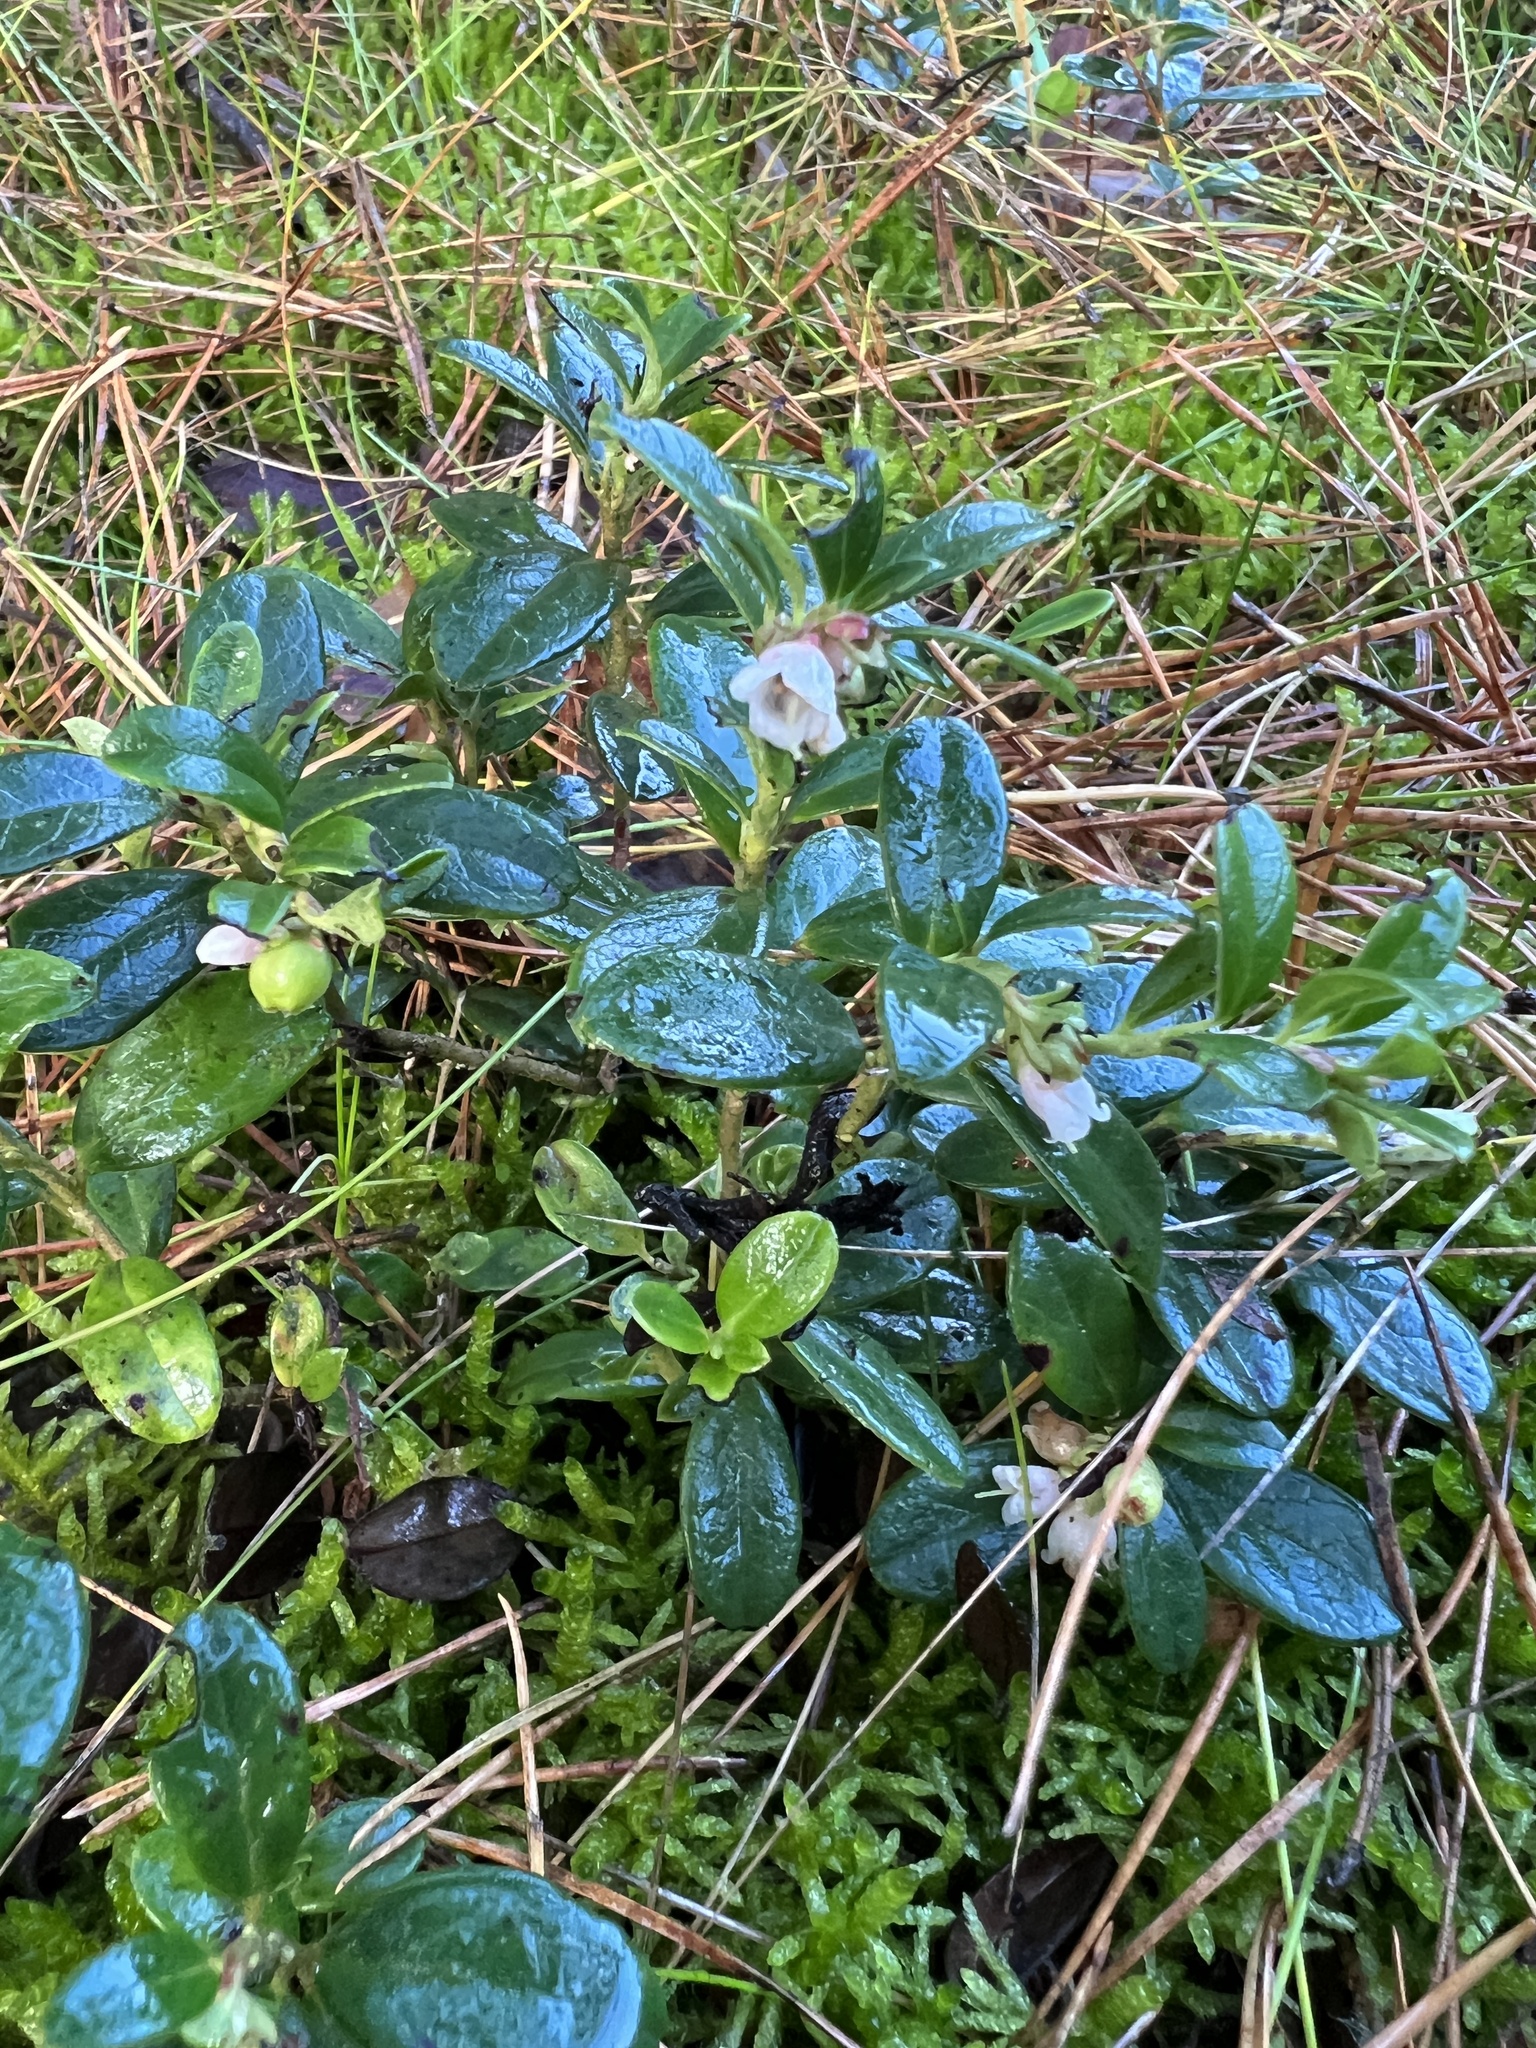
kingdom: Plantae
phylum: Tracheophyta
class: Magnoliopsida
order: Ericales
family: Ericaceae
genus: Vaccinium
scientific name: Vaccinium vitis-idaea
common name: Cowberry
